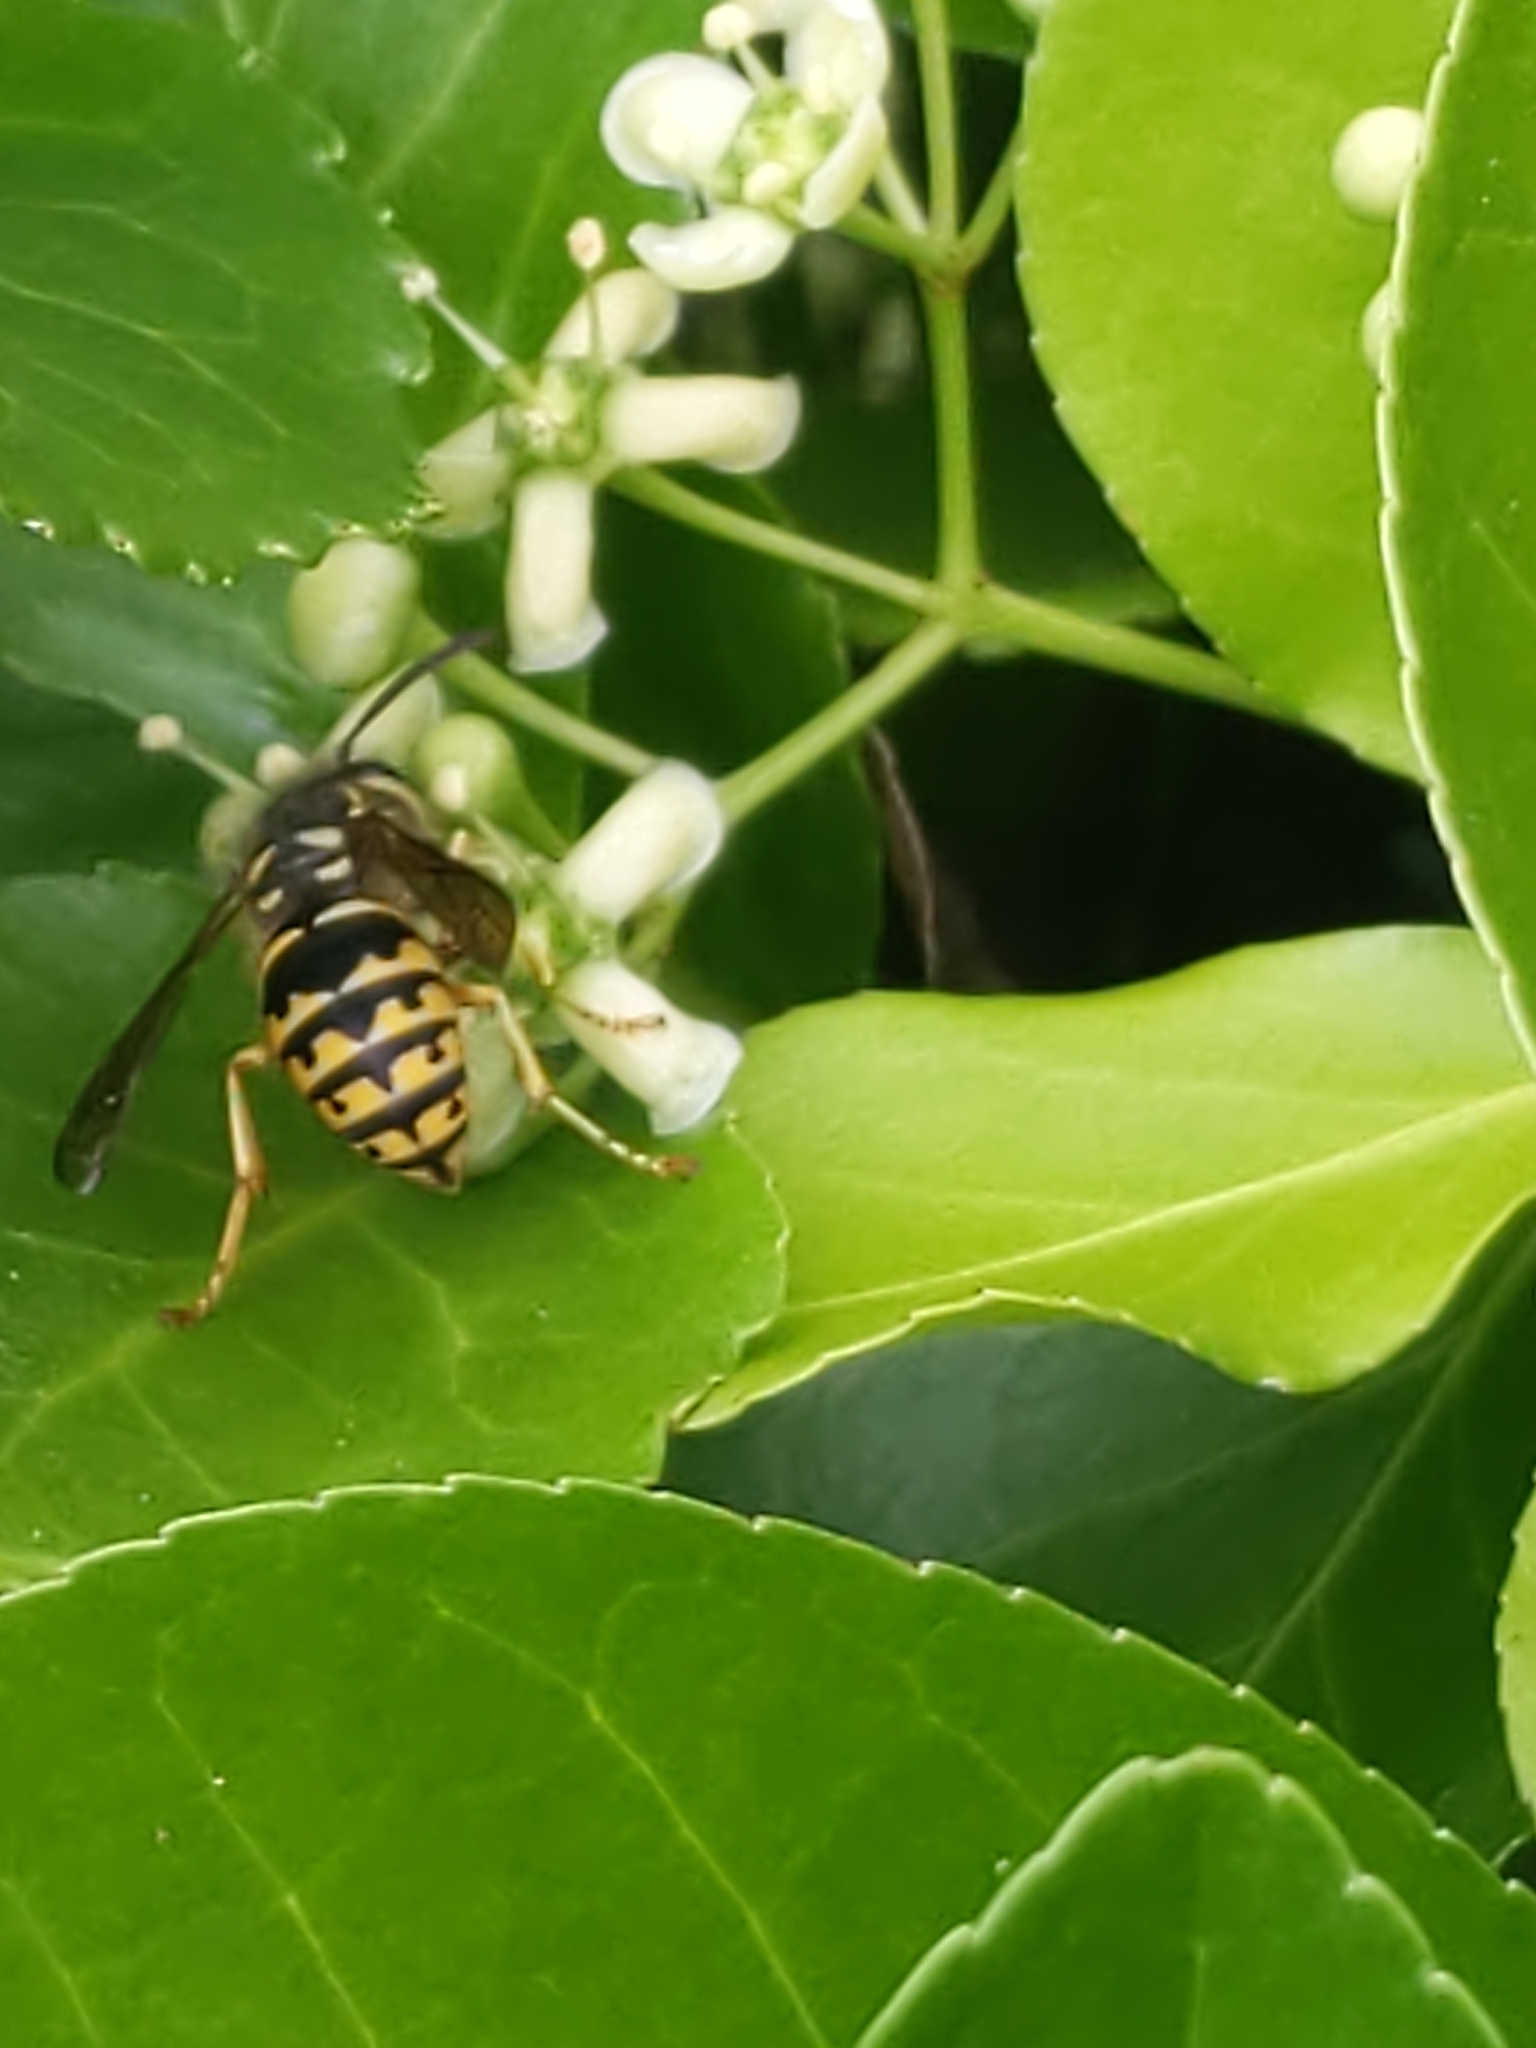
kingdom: Animalia
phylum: Arthropoda
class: Insecta
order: Hymenoptera
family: Vespidae
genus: Dolichovespula
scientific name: Dolichovespula arenaria
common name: Aerial yellowjacket
